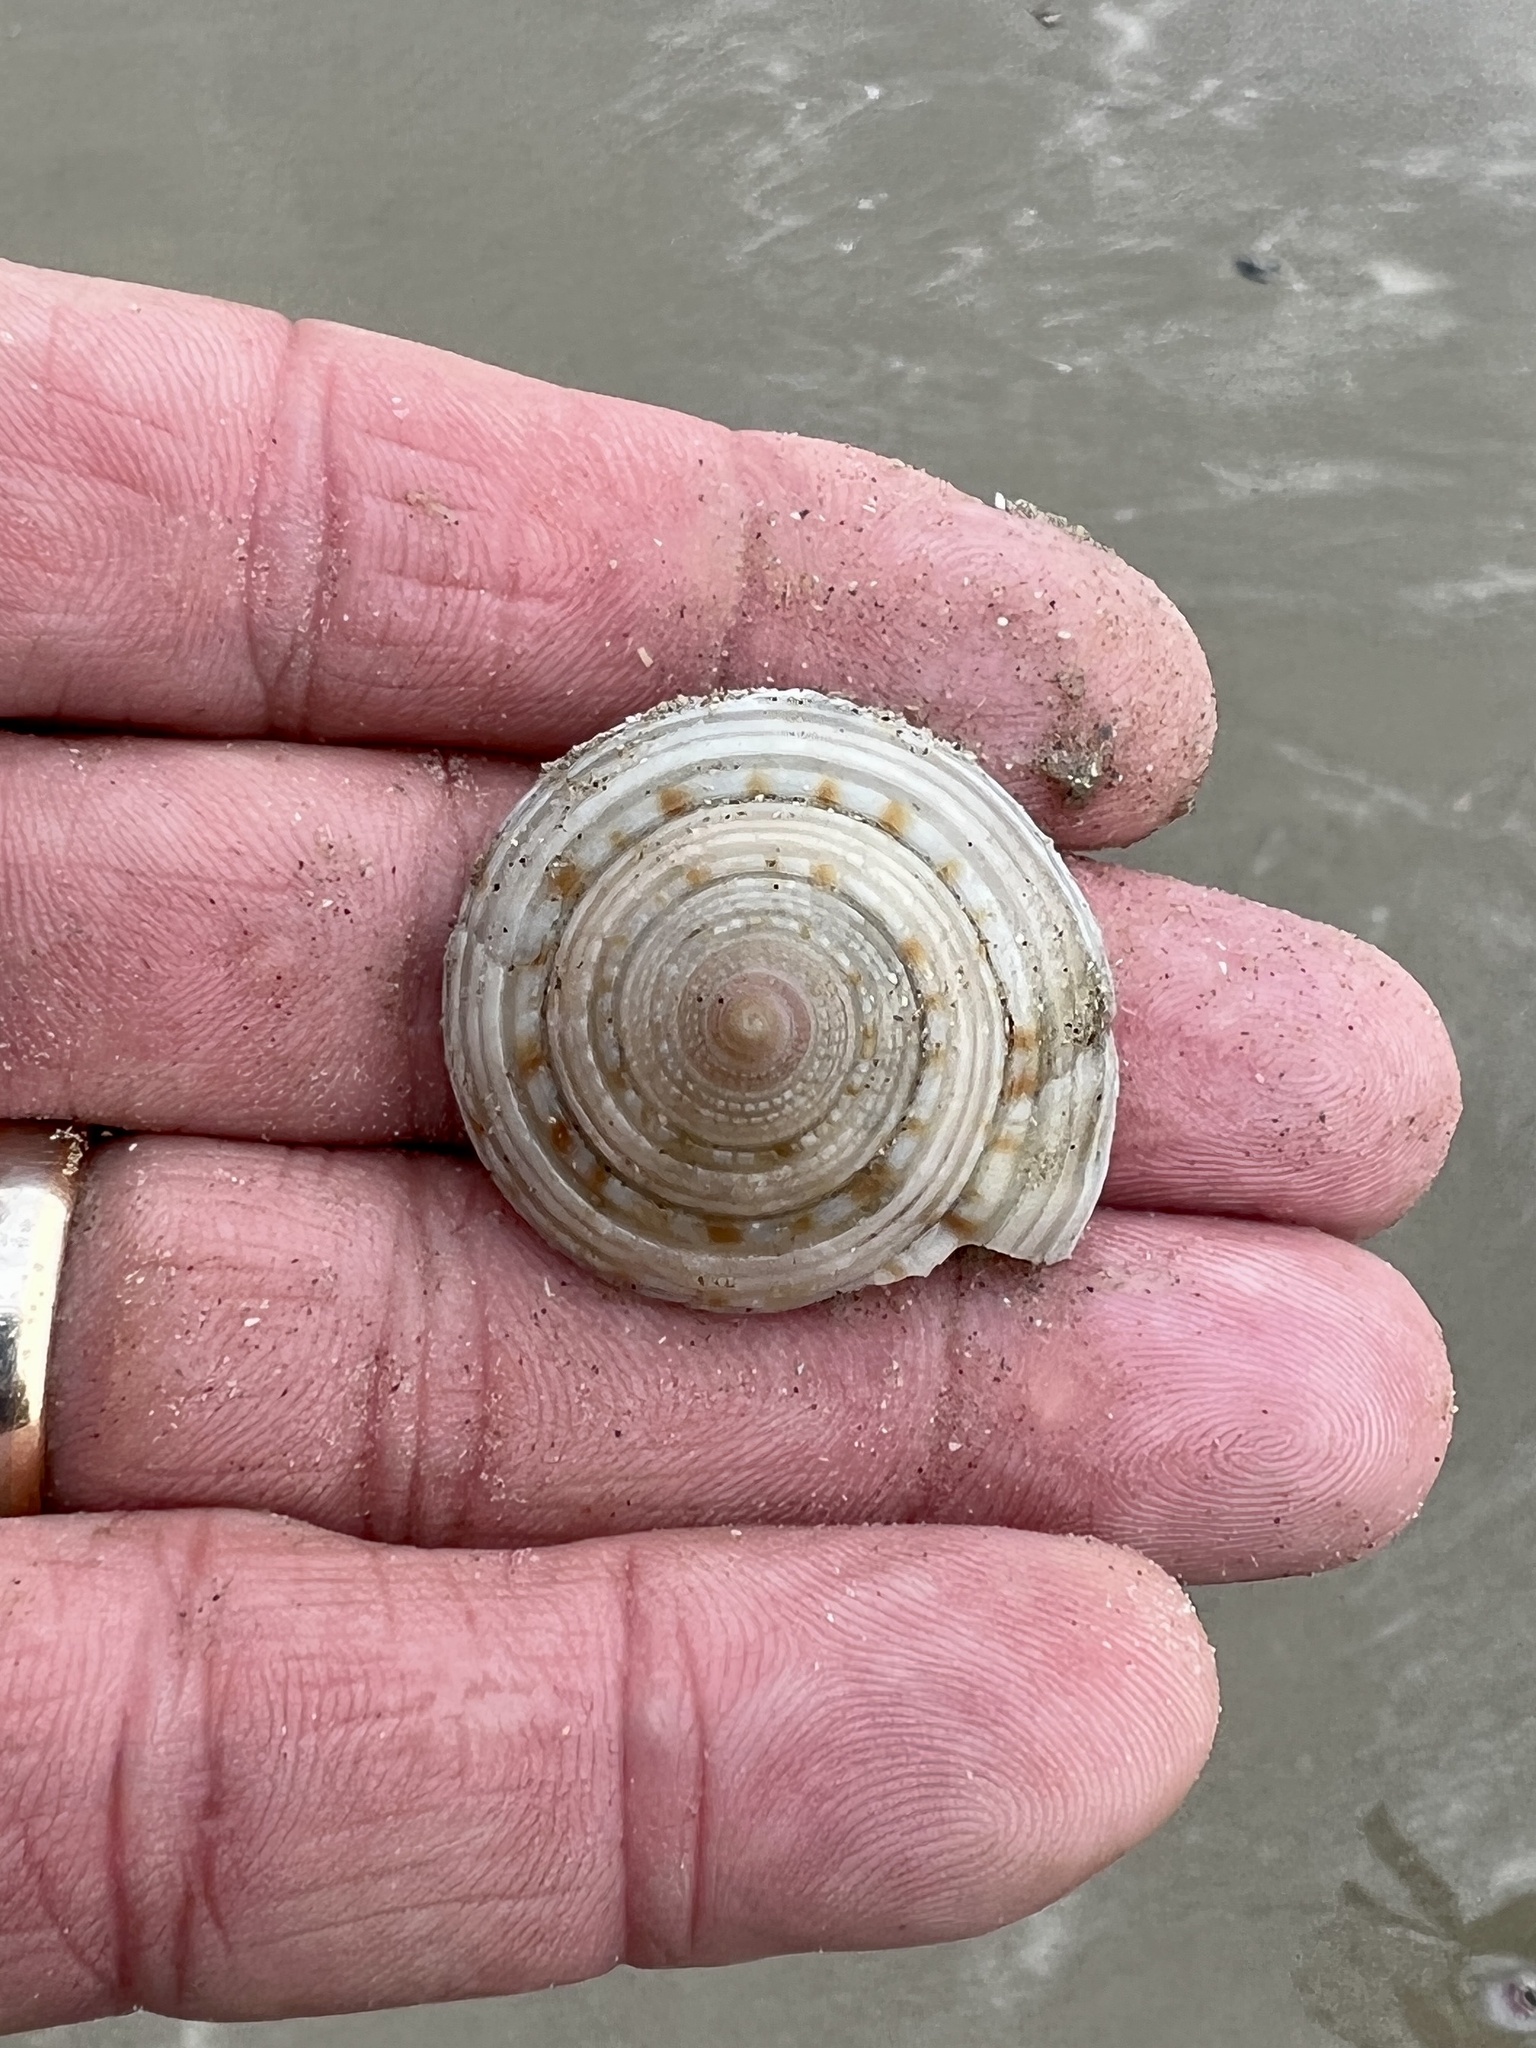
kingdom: Animalia
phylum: Mollusca
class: Gastropoda
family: Architectonicidae
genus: Architectonica
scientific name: Architectonica nobilis
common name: Common sundial
